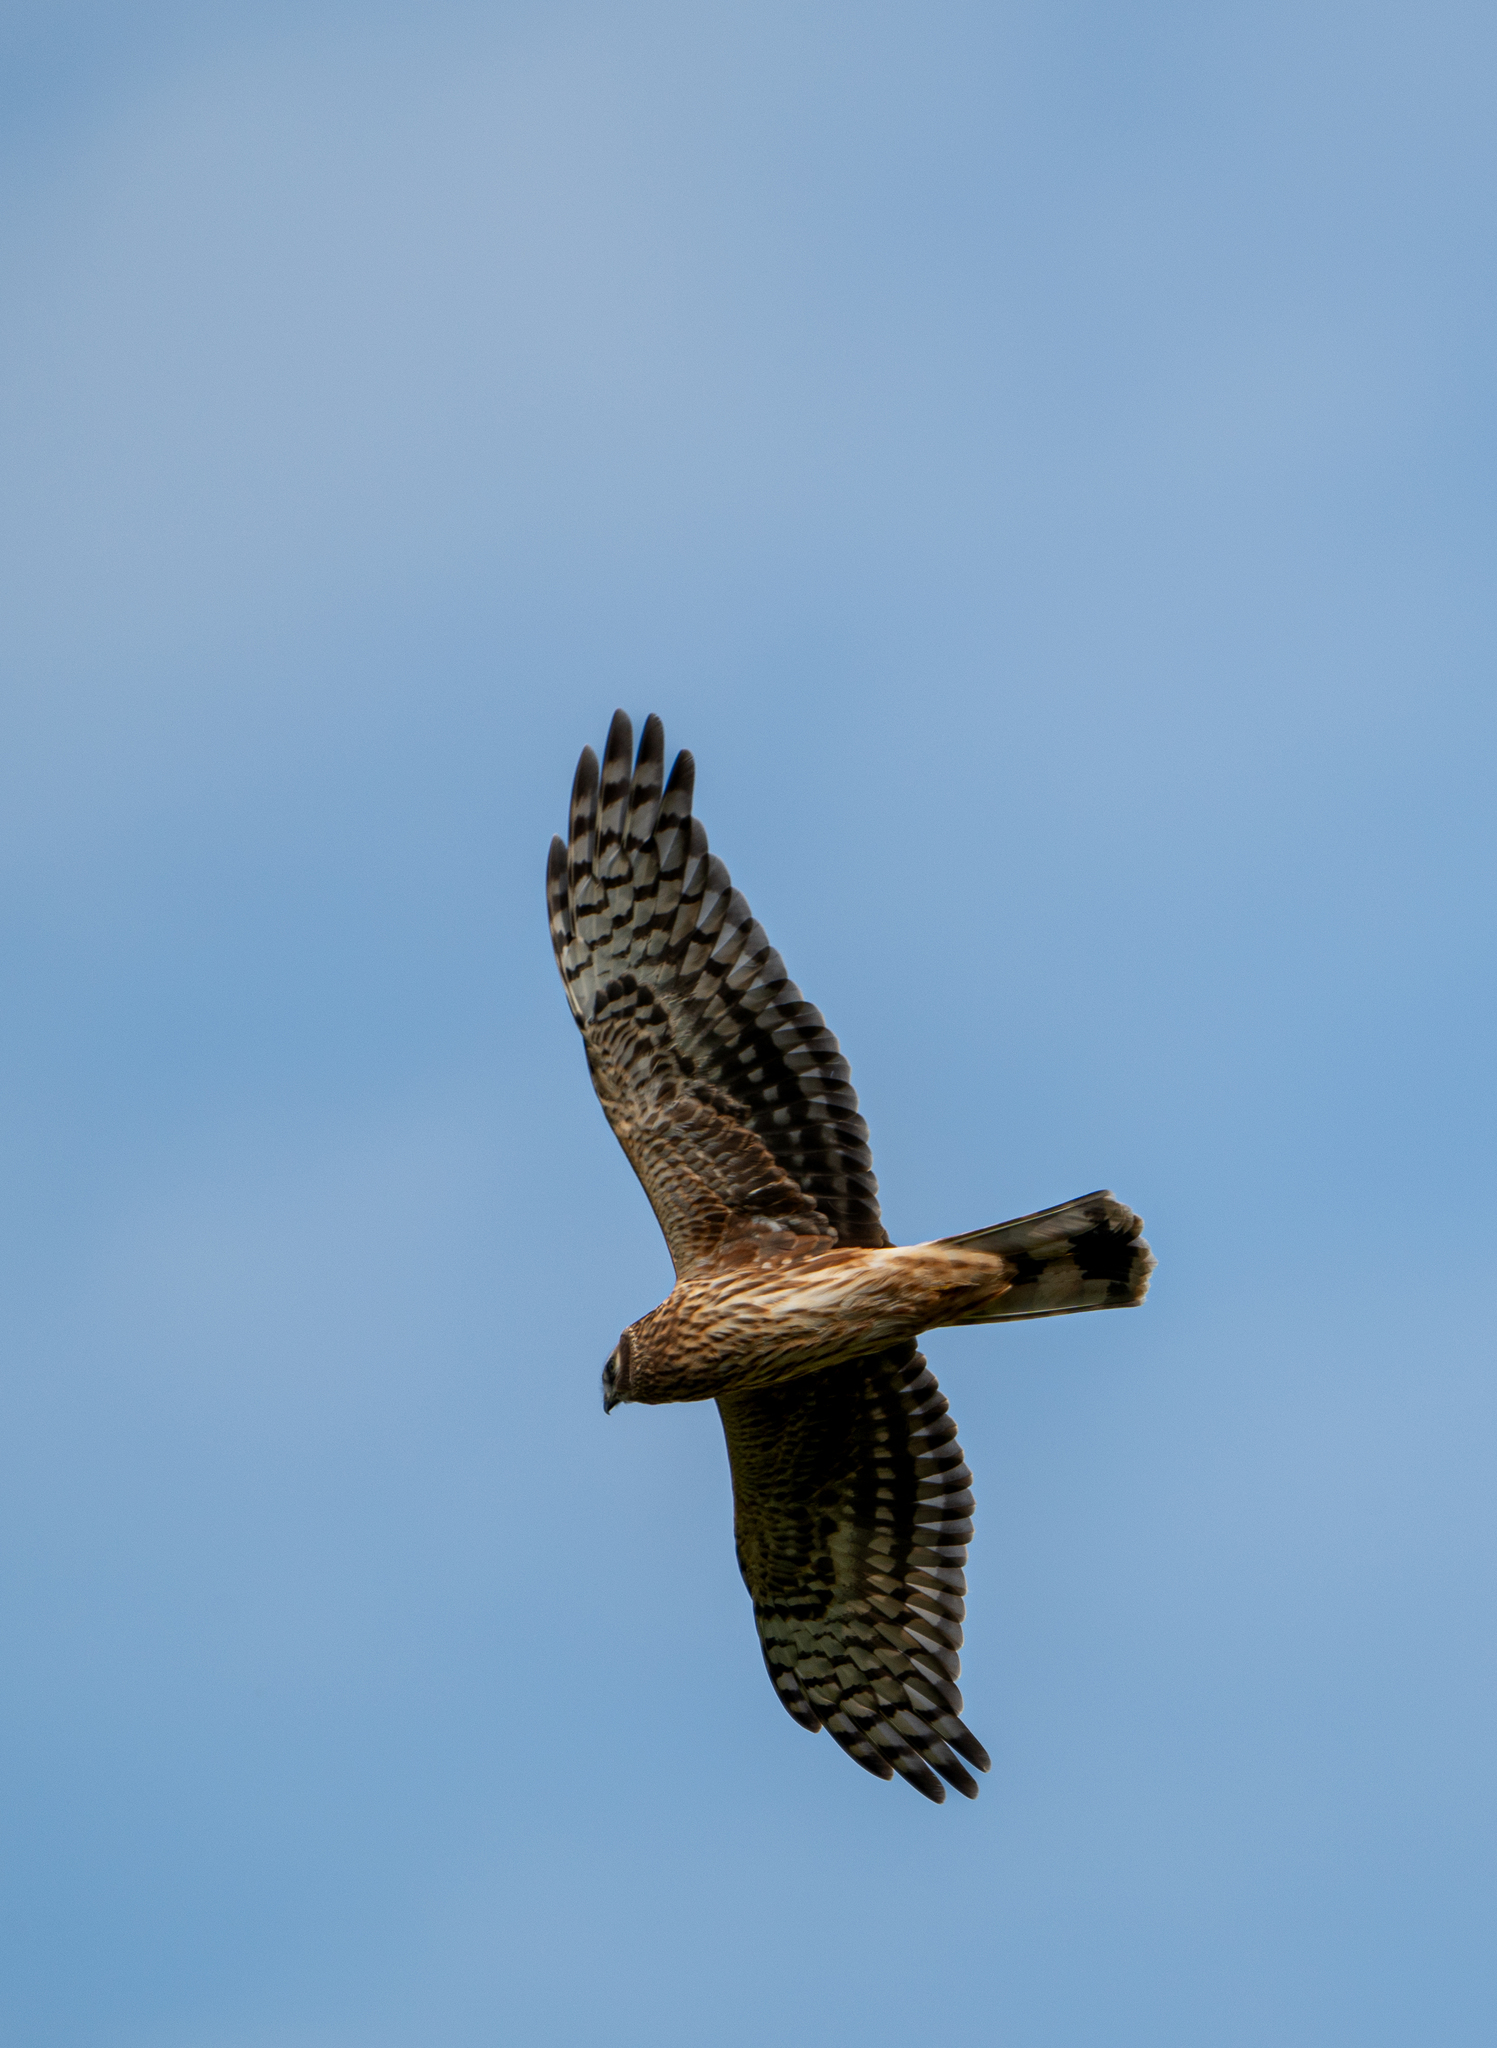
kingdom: Animalia
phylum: Chordata
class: Aves
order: Accipitriformes
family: Accipitridae
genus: Circus
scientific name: Circus cyaneus
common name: Hen harrier
